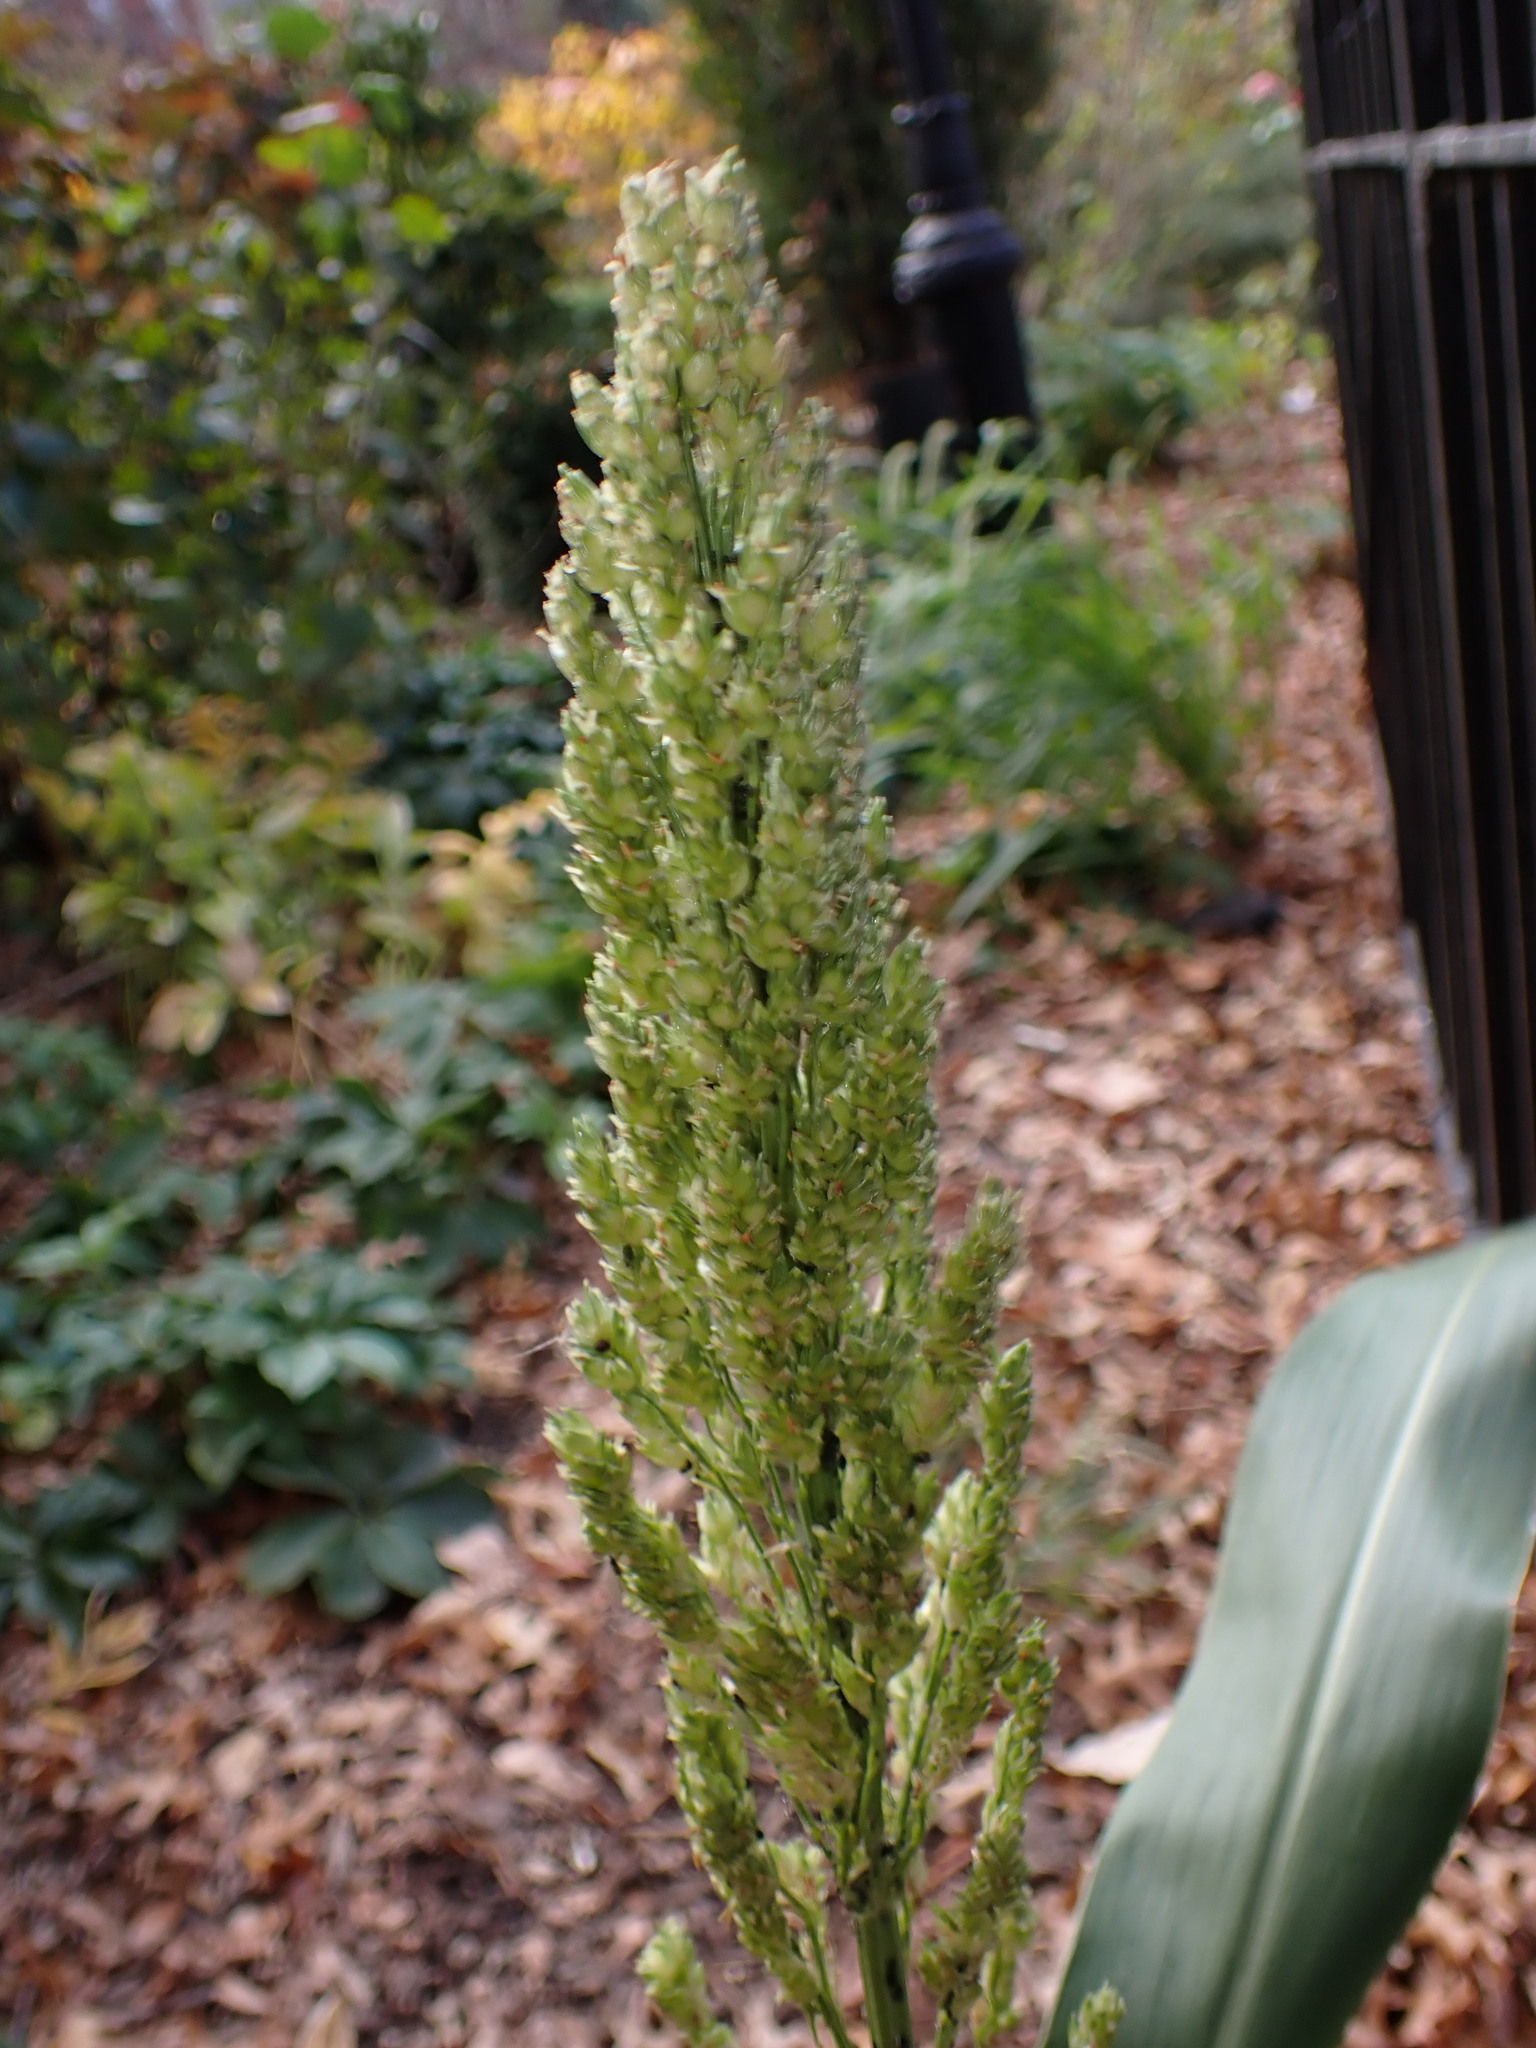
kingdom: Animalia
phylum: Arthropoda
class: Insecta
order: Hemiptera
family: Aphididae
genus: Rhopalosiphum
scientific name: Rhopalosiphum padi
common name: Oat-birdcherry aphid
